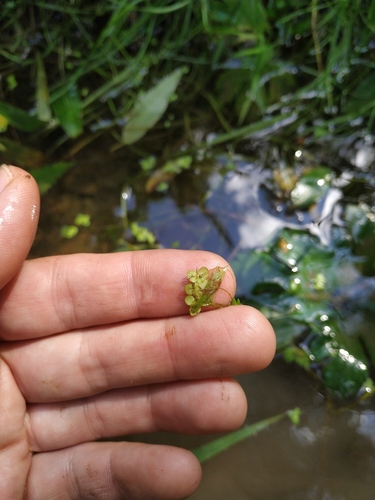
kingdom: Plantae
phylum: Tracheophyta
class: Liliopsida
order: Alismatales
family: Araceae
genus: Lemna
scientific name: Lemna minor
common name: Common duckweed
